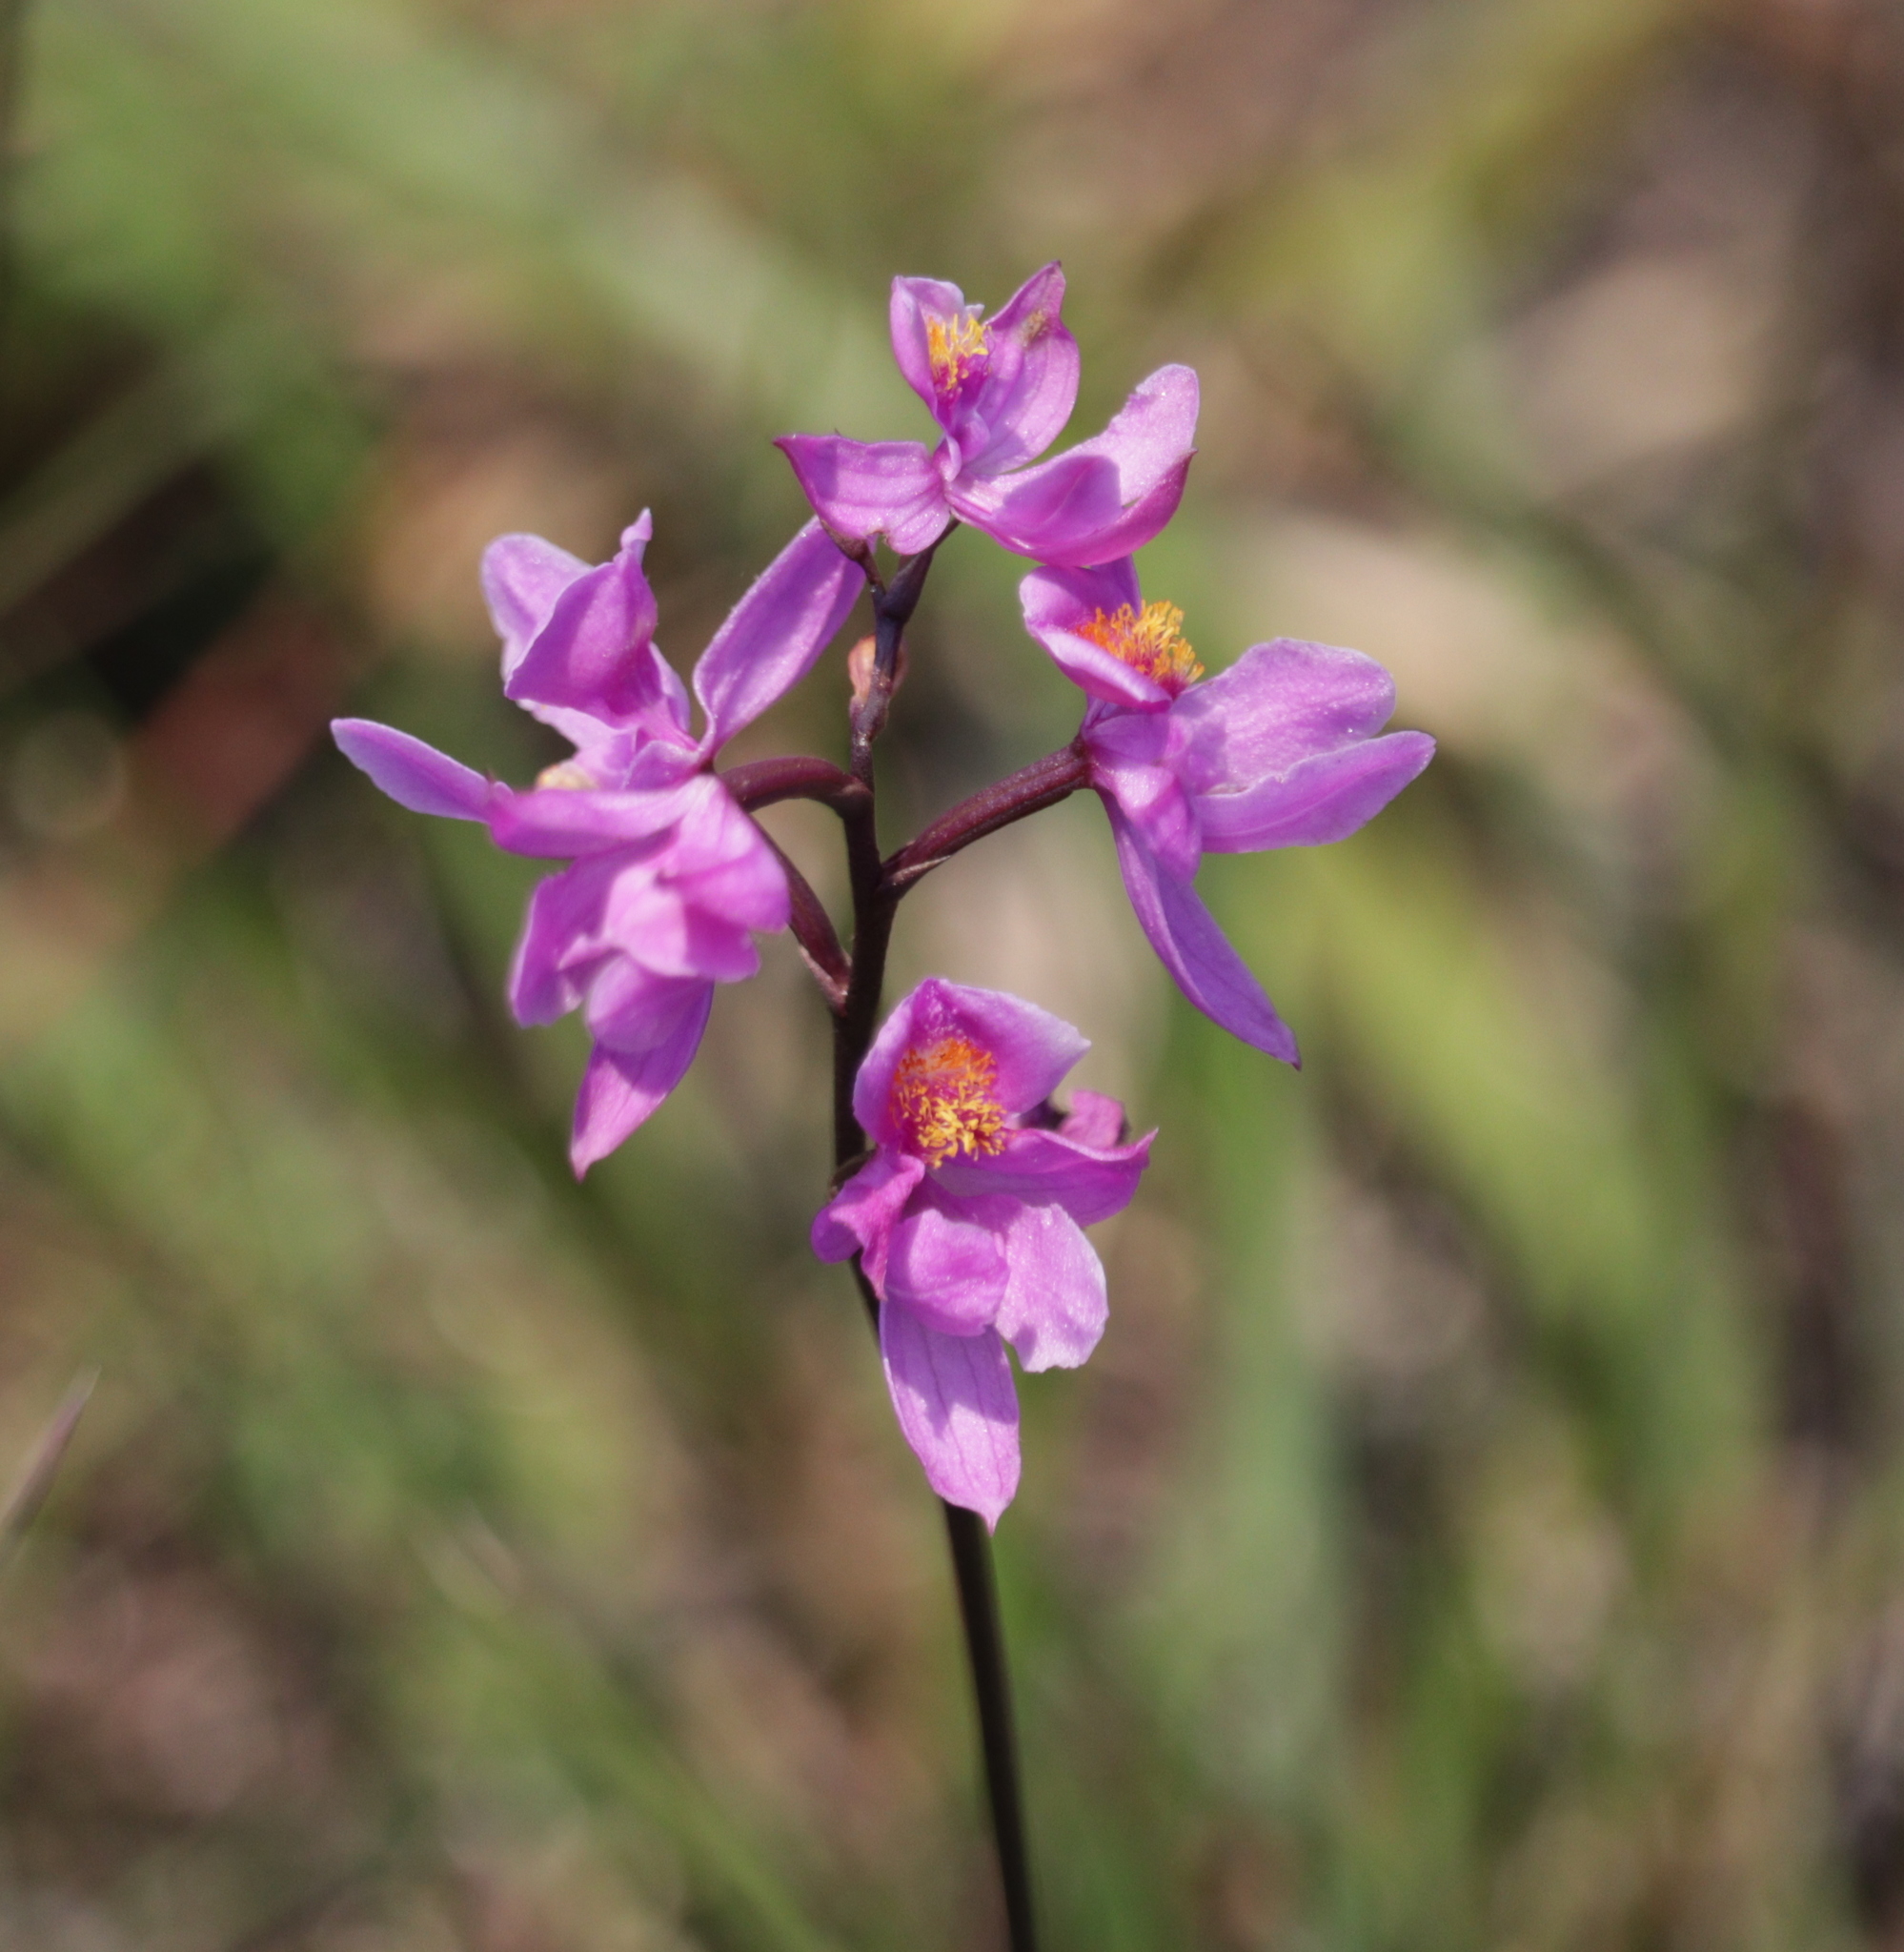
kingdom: Plantae
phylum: Tracheophyta
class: Liliopsida
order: Asparagales
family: Orchidaceae
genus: Calopogon
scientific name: Calopogon multiflorus
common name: Many-flowered grass-pink orchid
